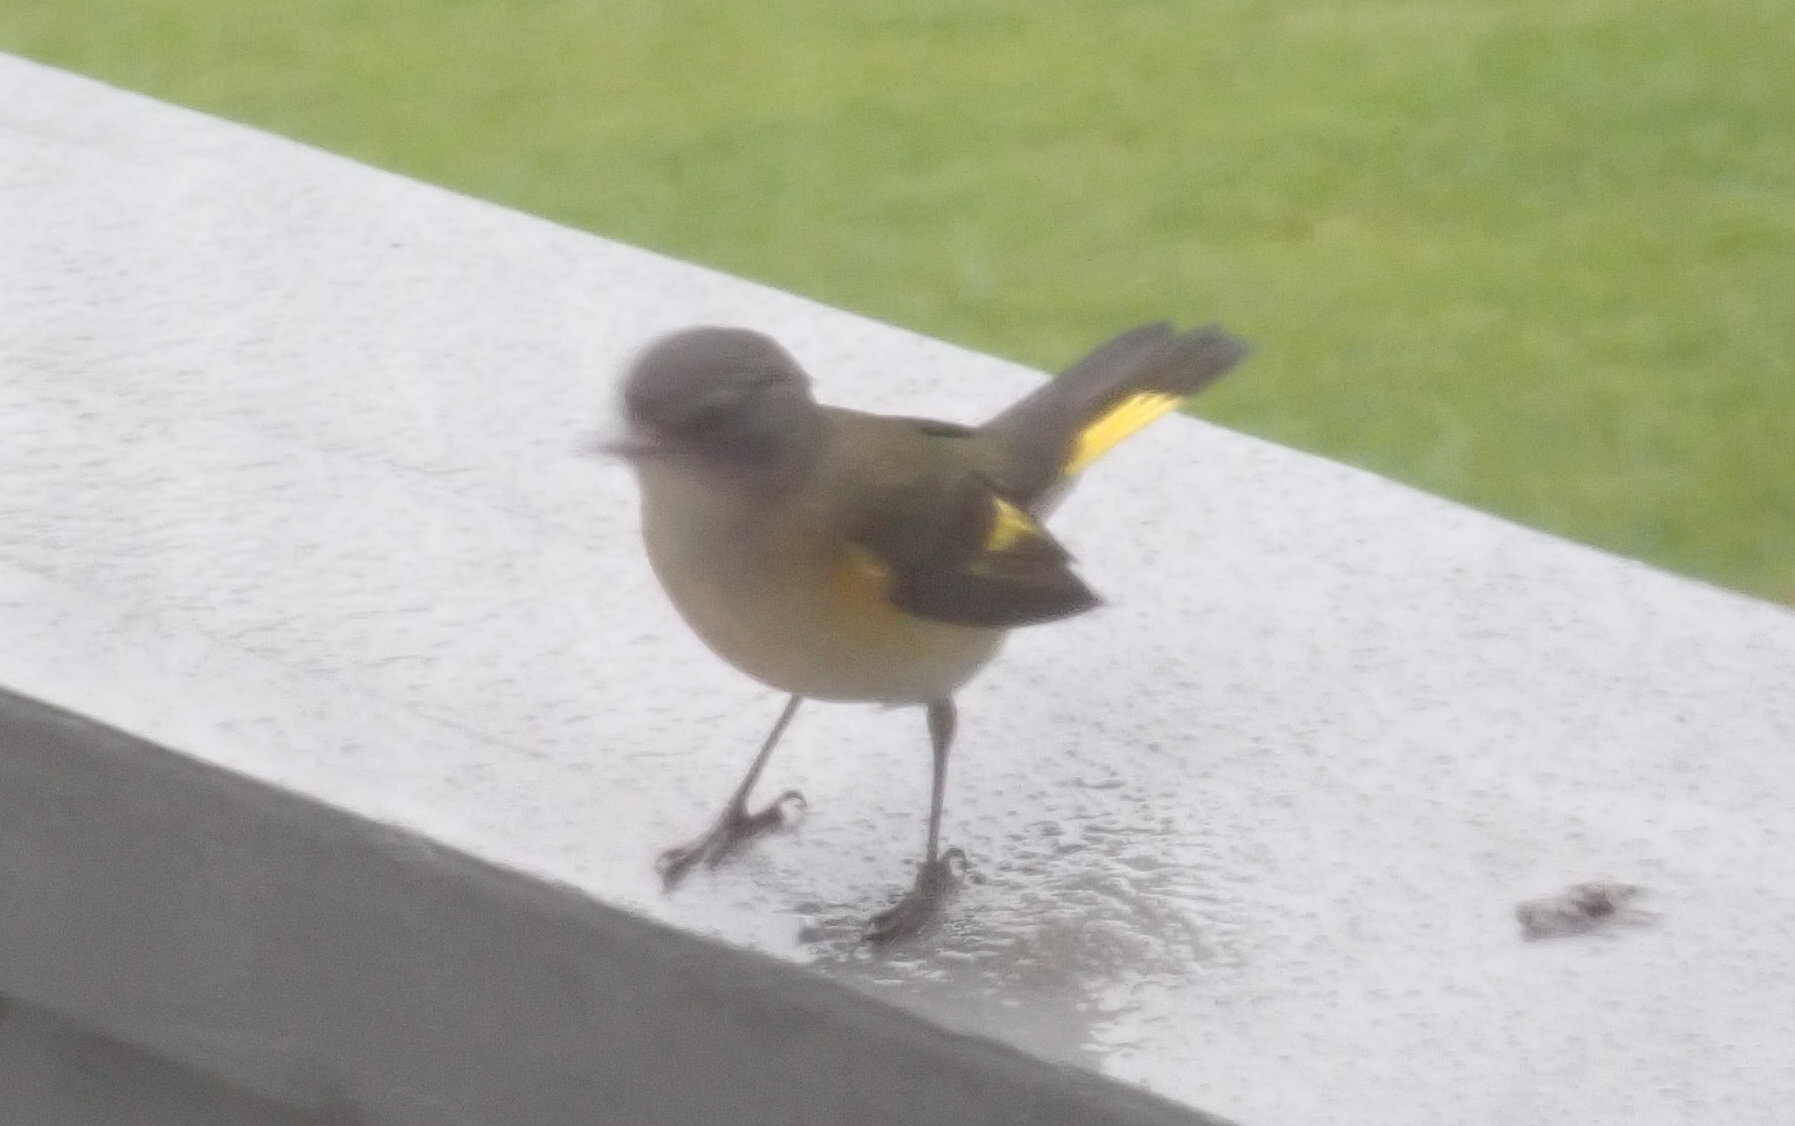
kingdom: Animalia
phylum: Chordata
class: Aves
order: Passeriformes
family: Parulidae
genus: Setophaga
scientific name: Setophaga ruticilla
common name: American redstart
